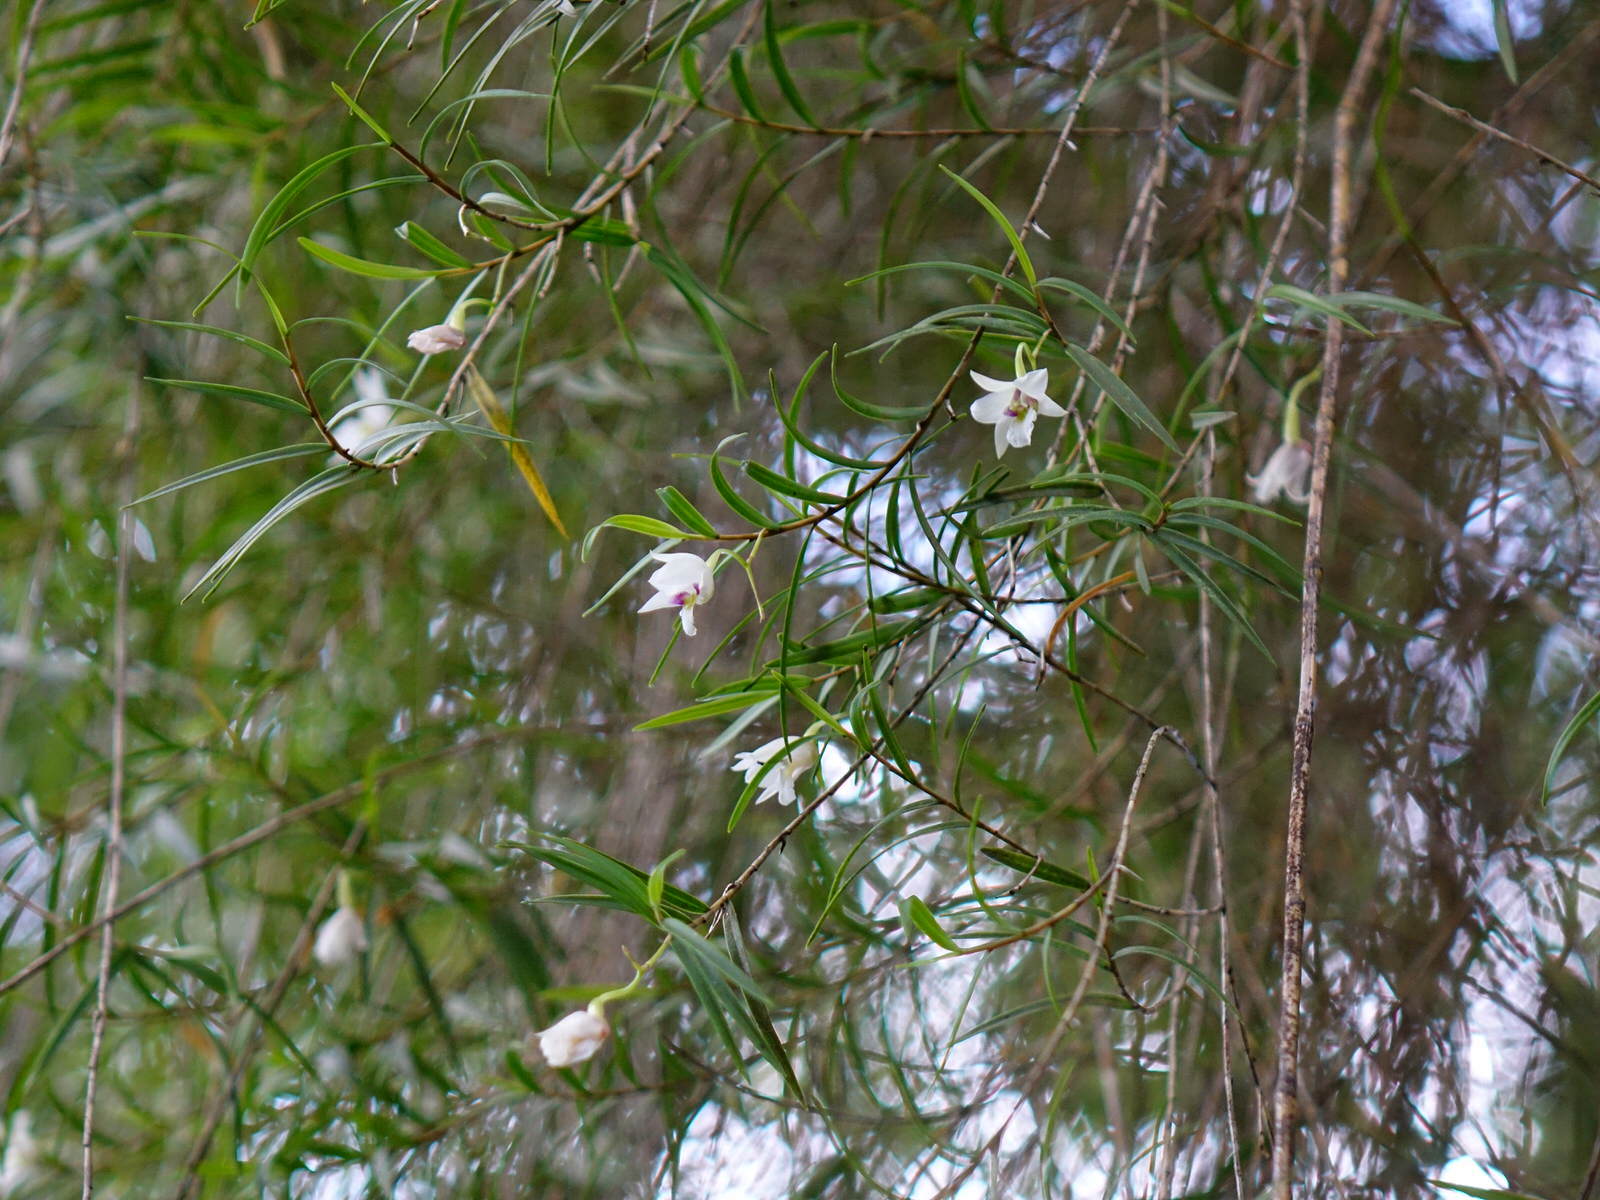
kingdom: Plantae
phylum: Tracheophyta
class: Liliopsida
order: Asparagales
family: Orchidaceae
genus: Dendrobium
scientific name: Dendrobium cunninghamii
